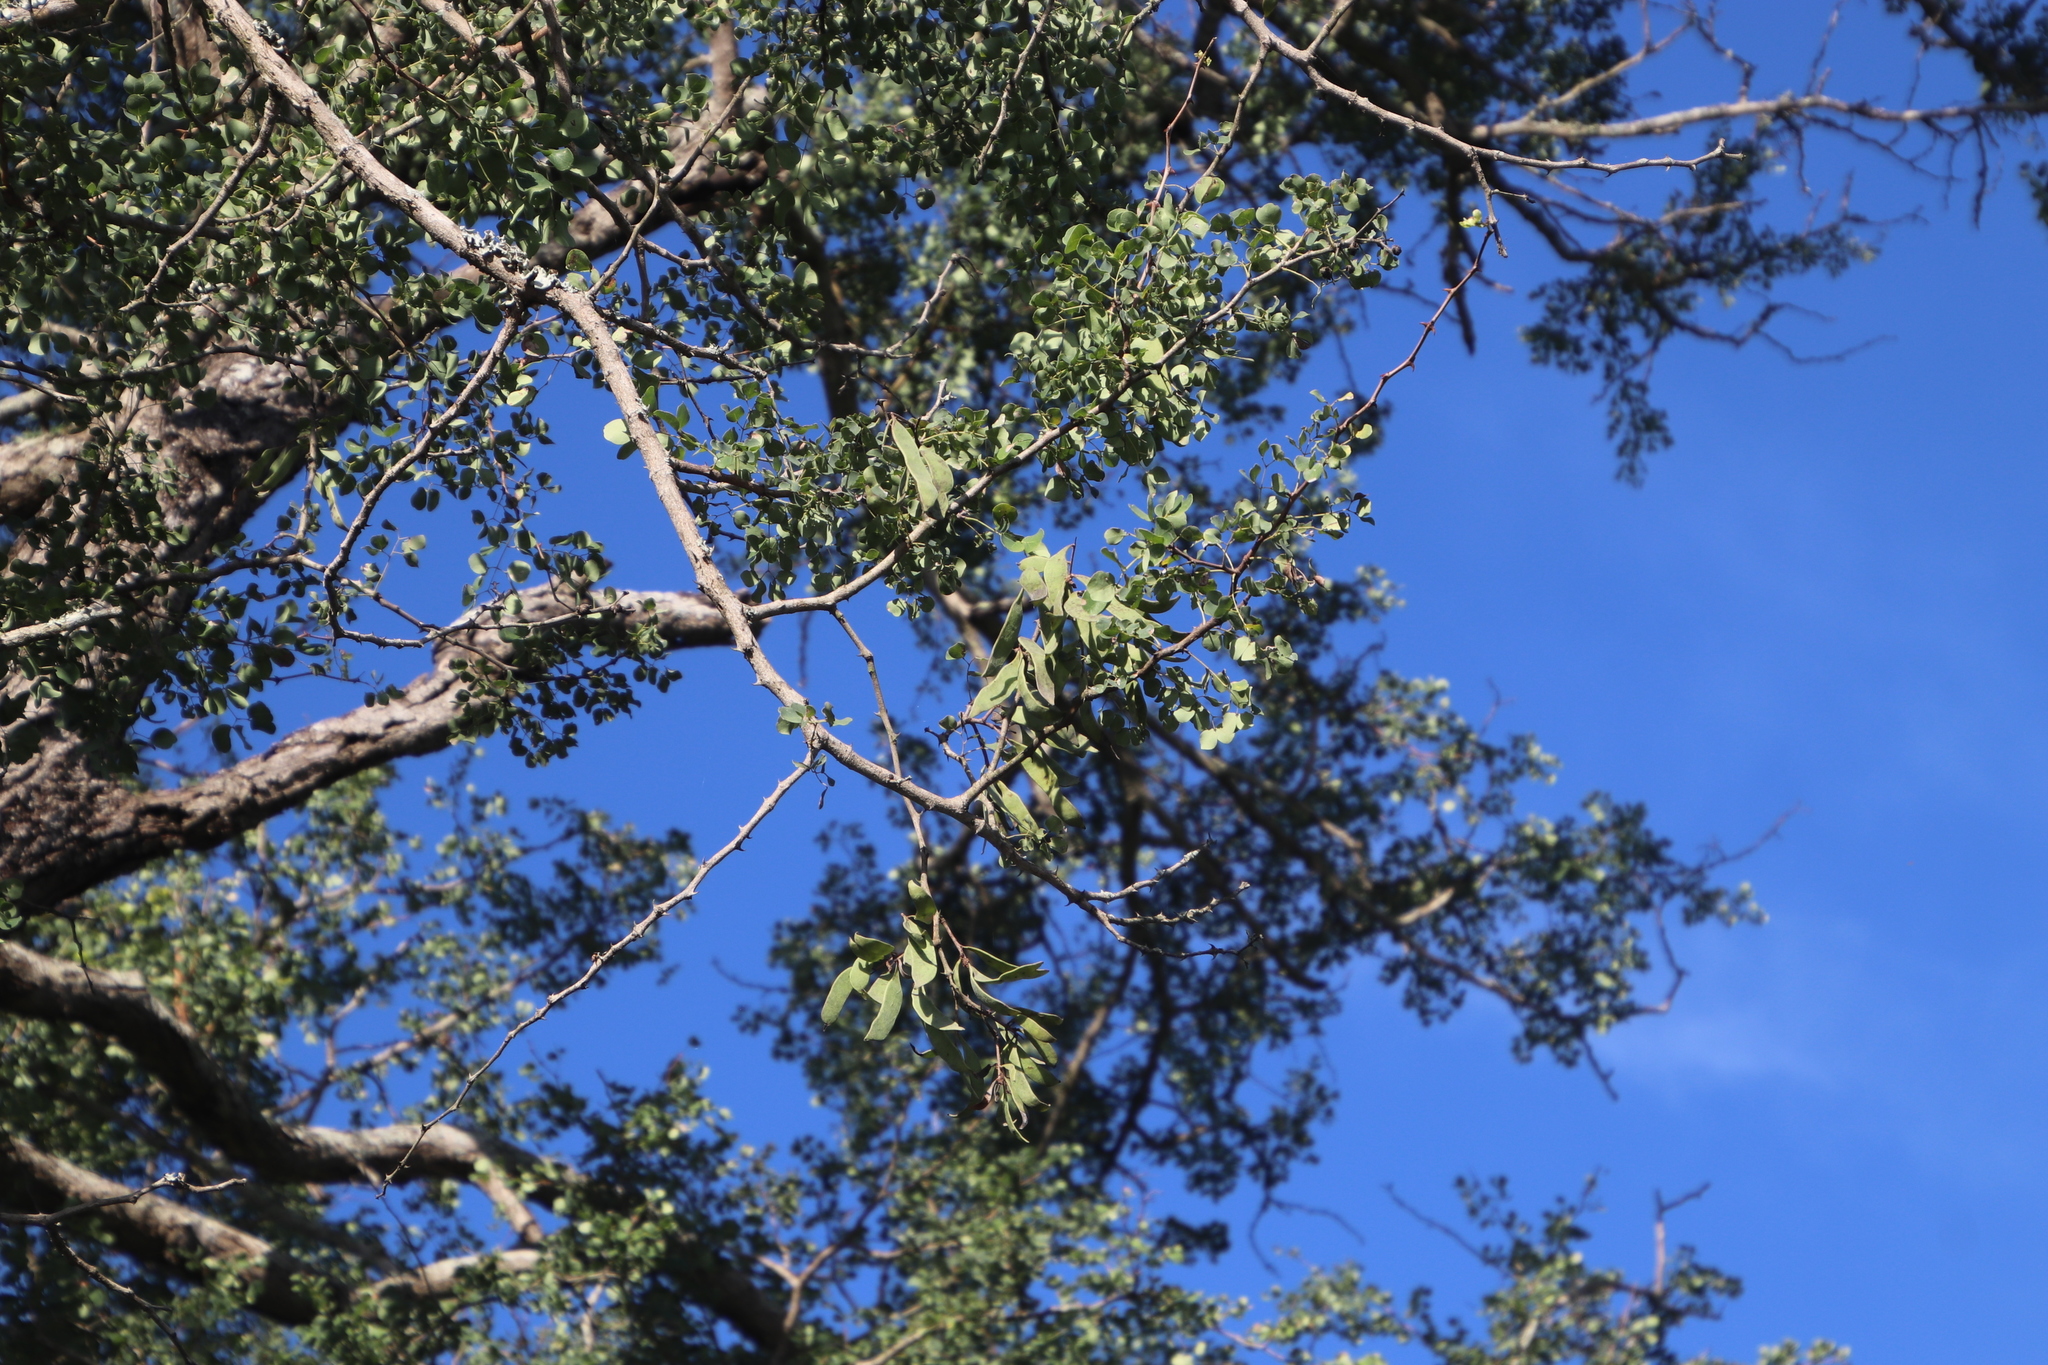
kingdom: Plantae
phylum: Tracheophyta
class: Magnoliopsida
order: Fabales
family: Fabaceae
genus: Senegalia
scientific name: Senegalia nigrescens
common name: Knobthorn
